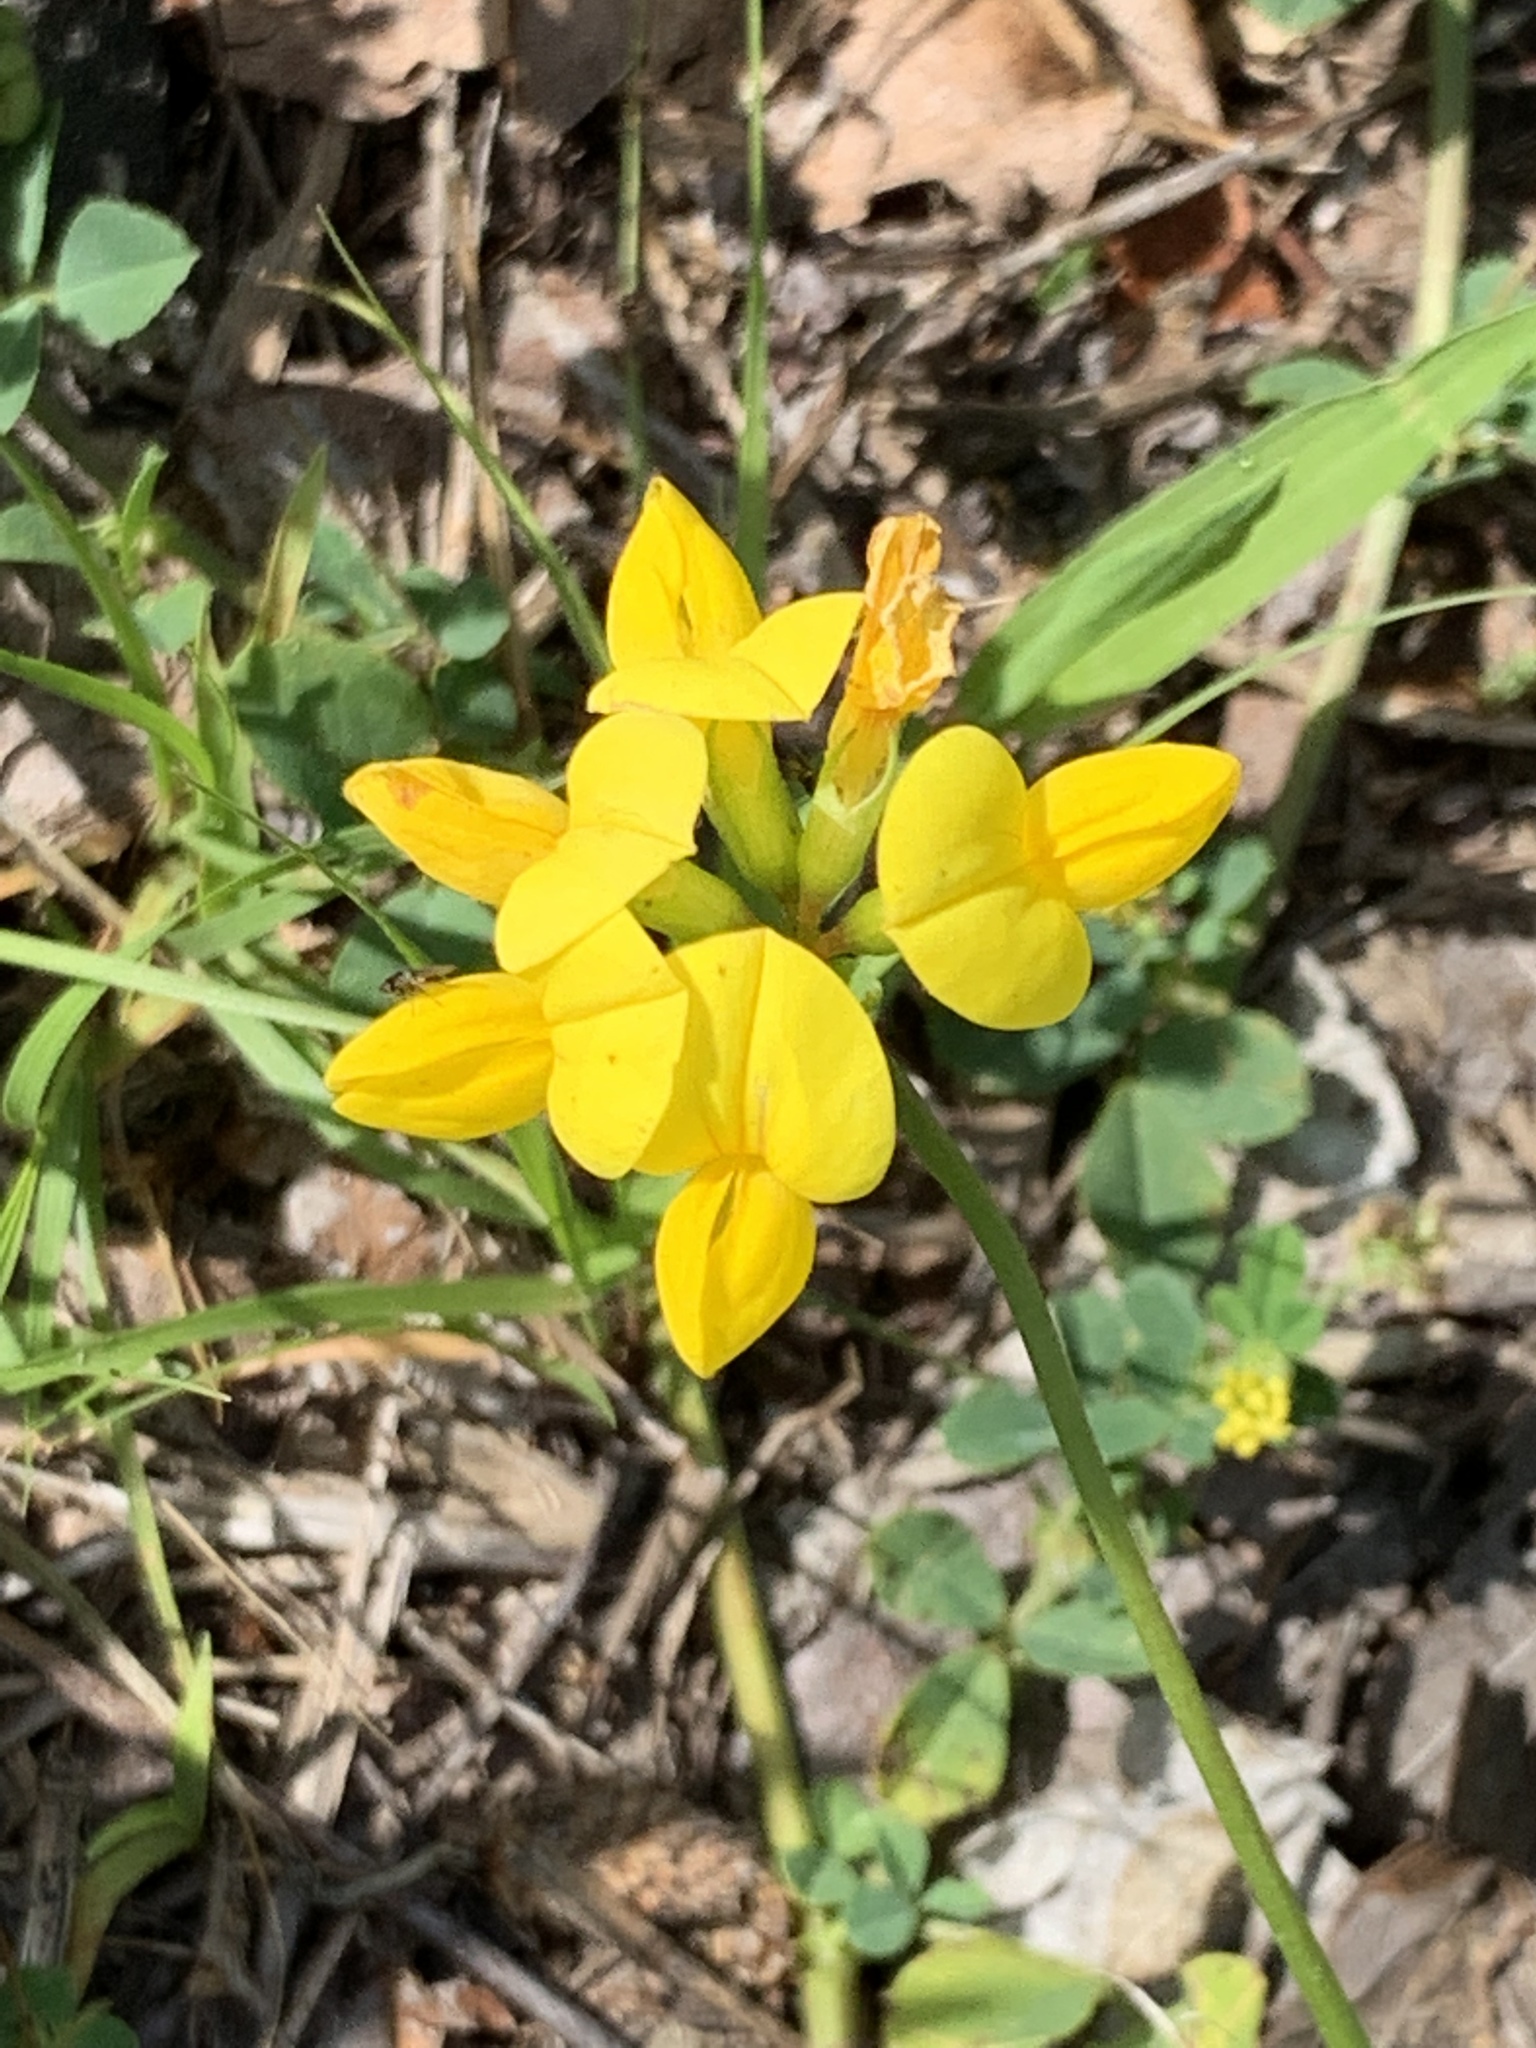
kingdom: Plantae
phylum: Tracheophyta
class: Magnoliopsida
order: Fabales
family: Fabaceae
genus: Lotus
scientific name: Lotus corniculatus
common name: Common bird's-foot-trefoil
